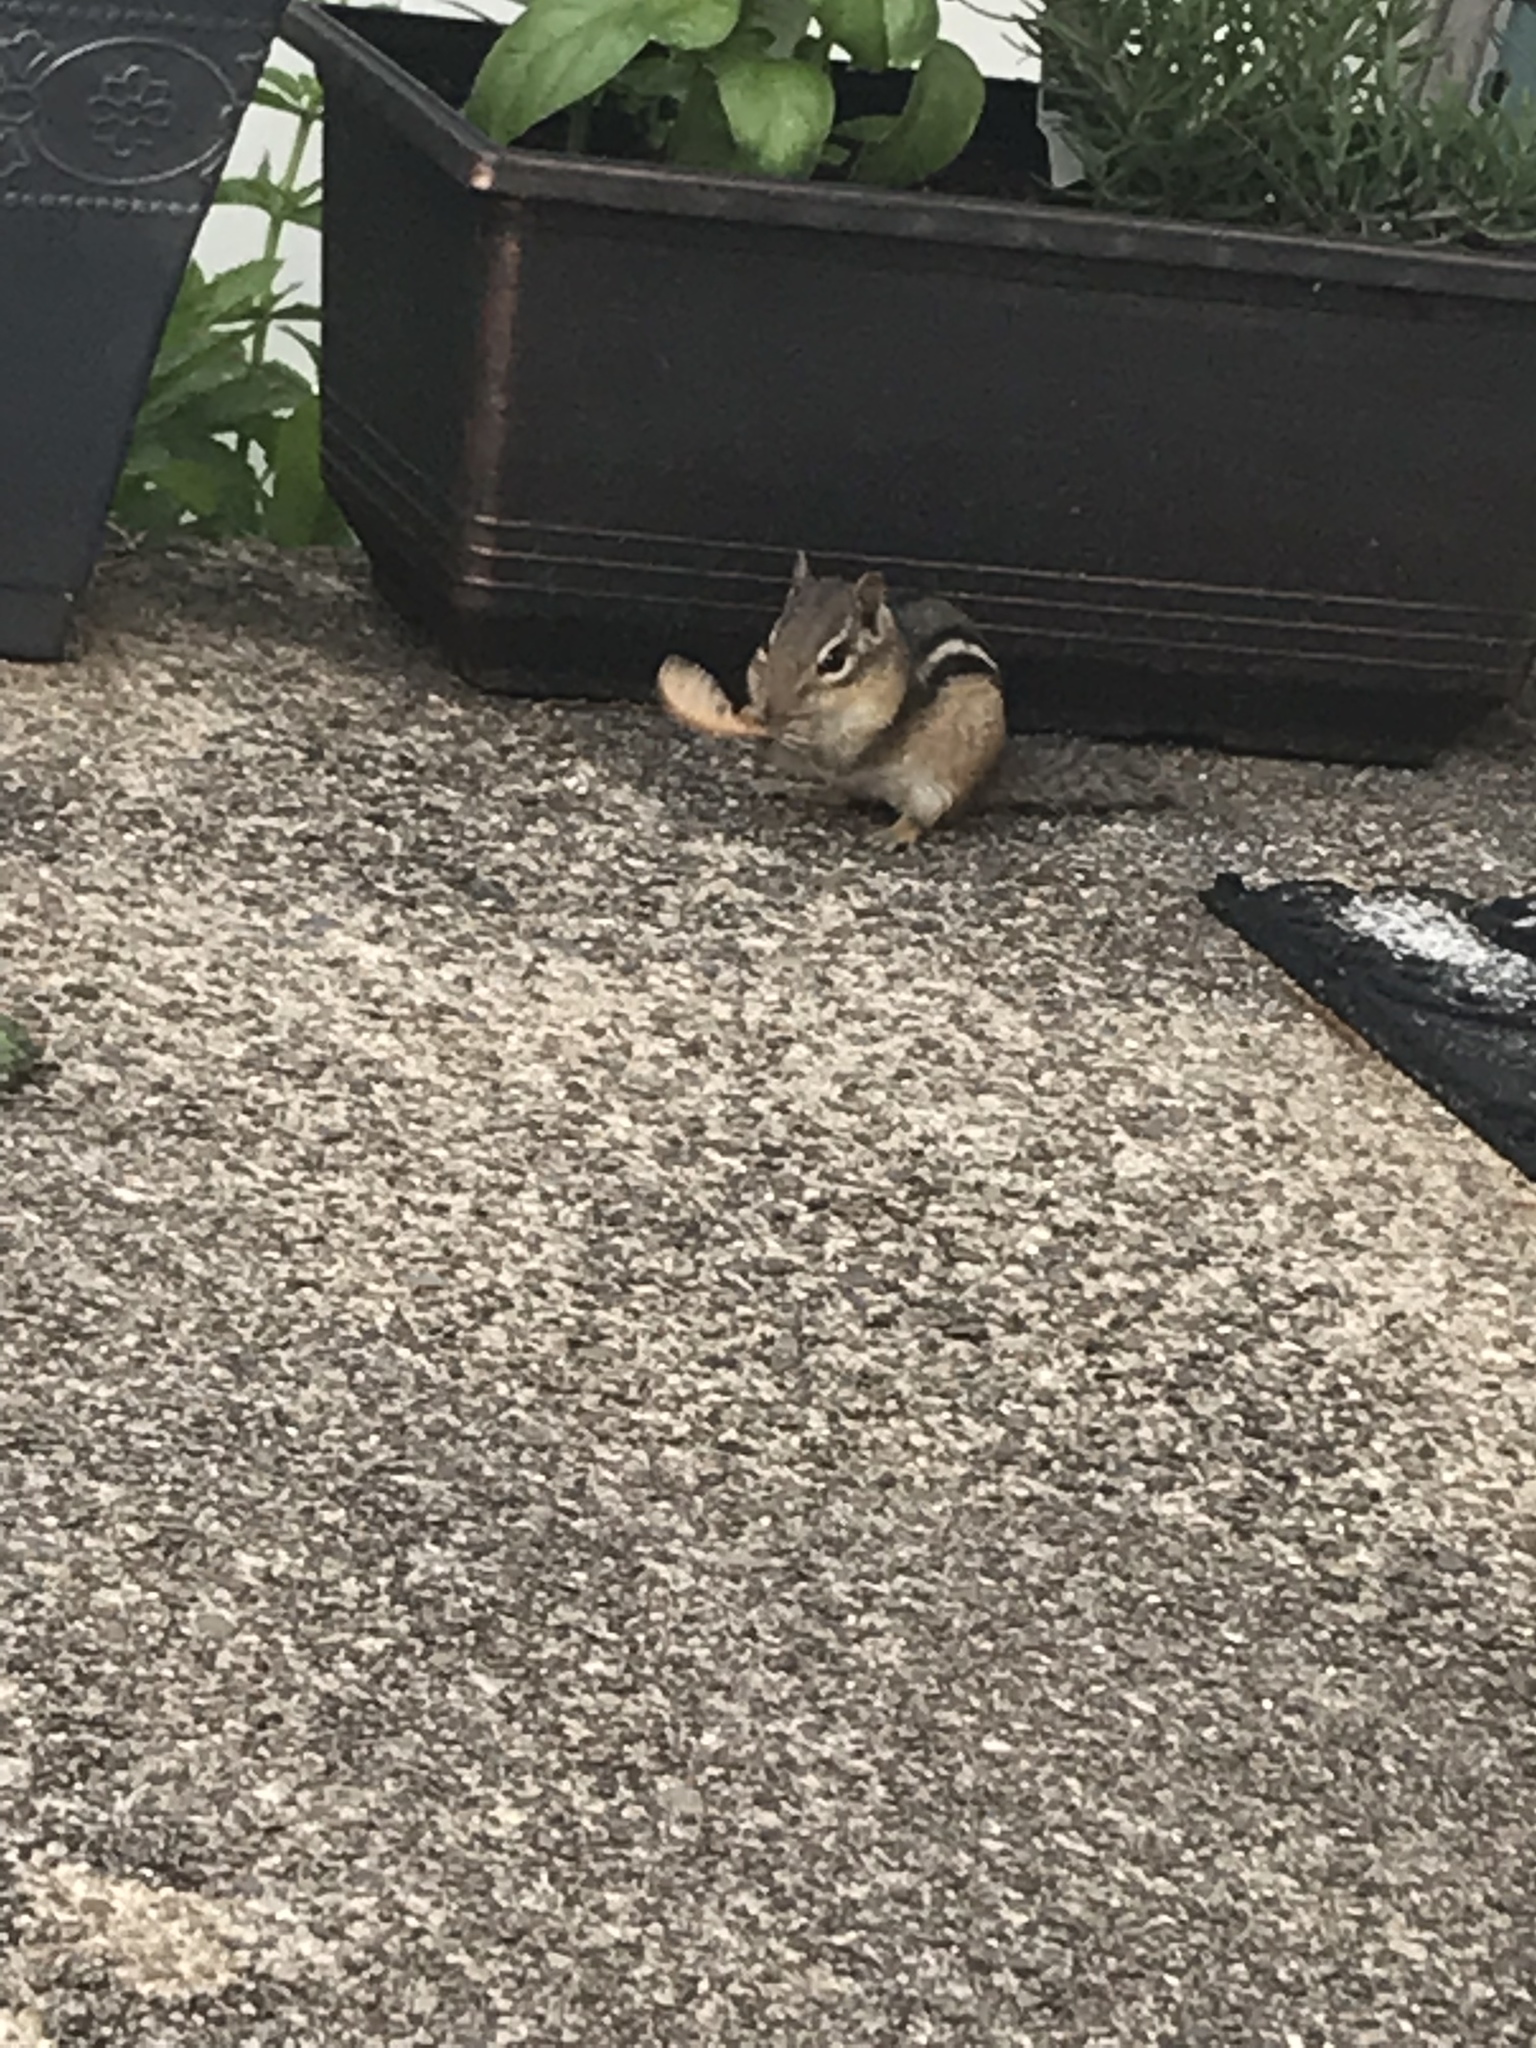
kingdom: Animalia
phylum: Chordata
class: Mammalia
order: Rodentia
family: Sciuridae
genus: Tamias
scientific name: Tamias striatus
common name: Eastern chipmunk
